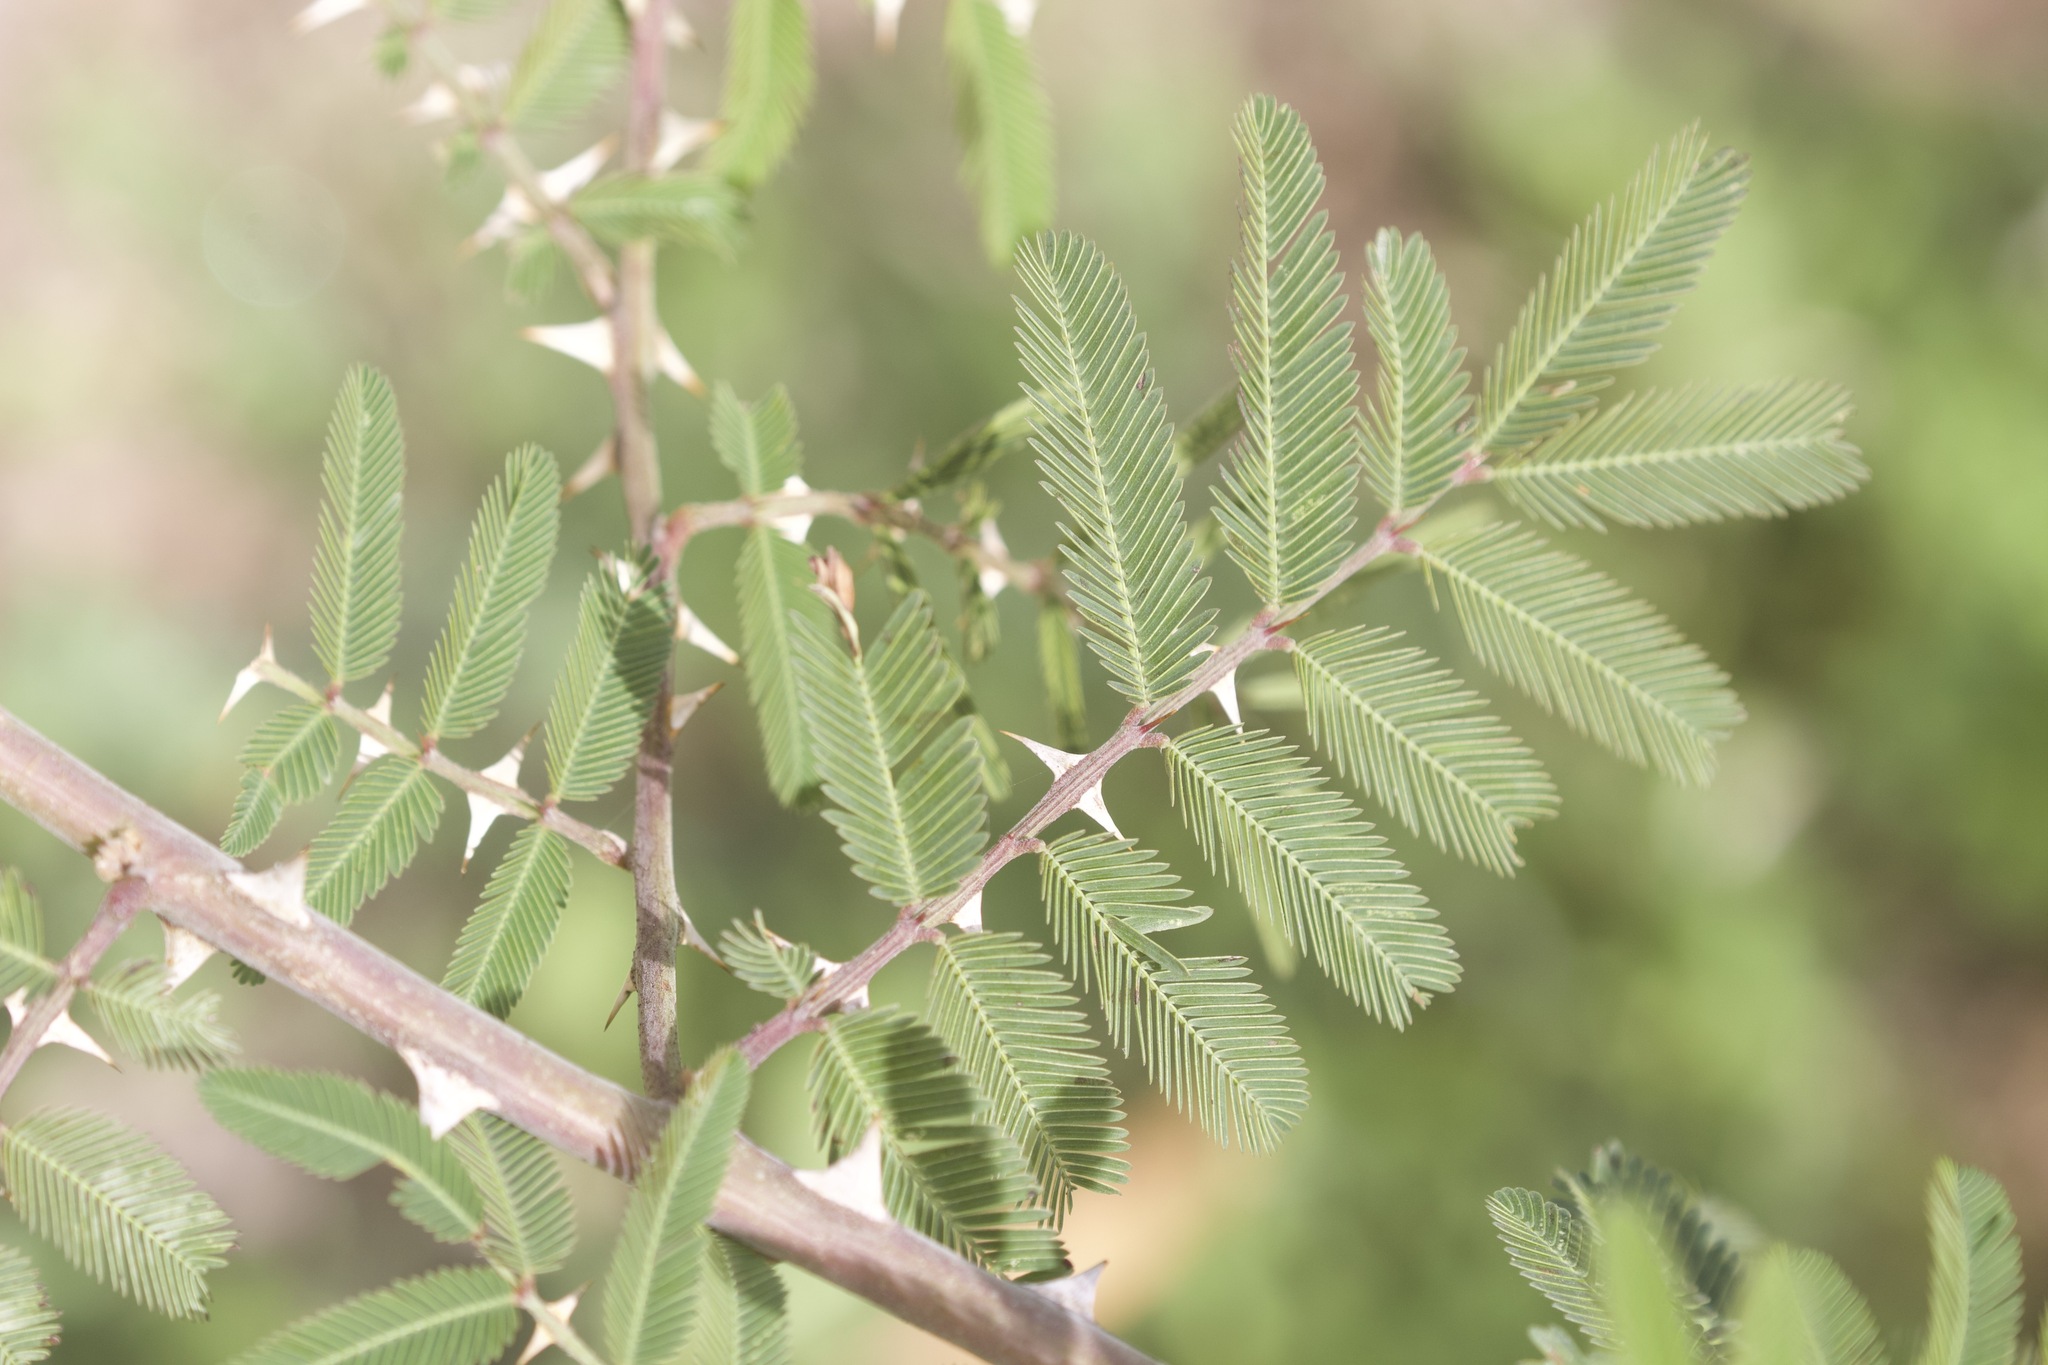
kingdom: Plantae
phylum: Tracheophyta
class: Magnoliopsida
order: Fabales
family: Fabaceae
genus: Mimosa
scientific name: Mimosa pigra
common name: Black mimosa
